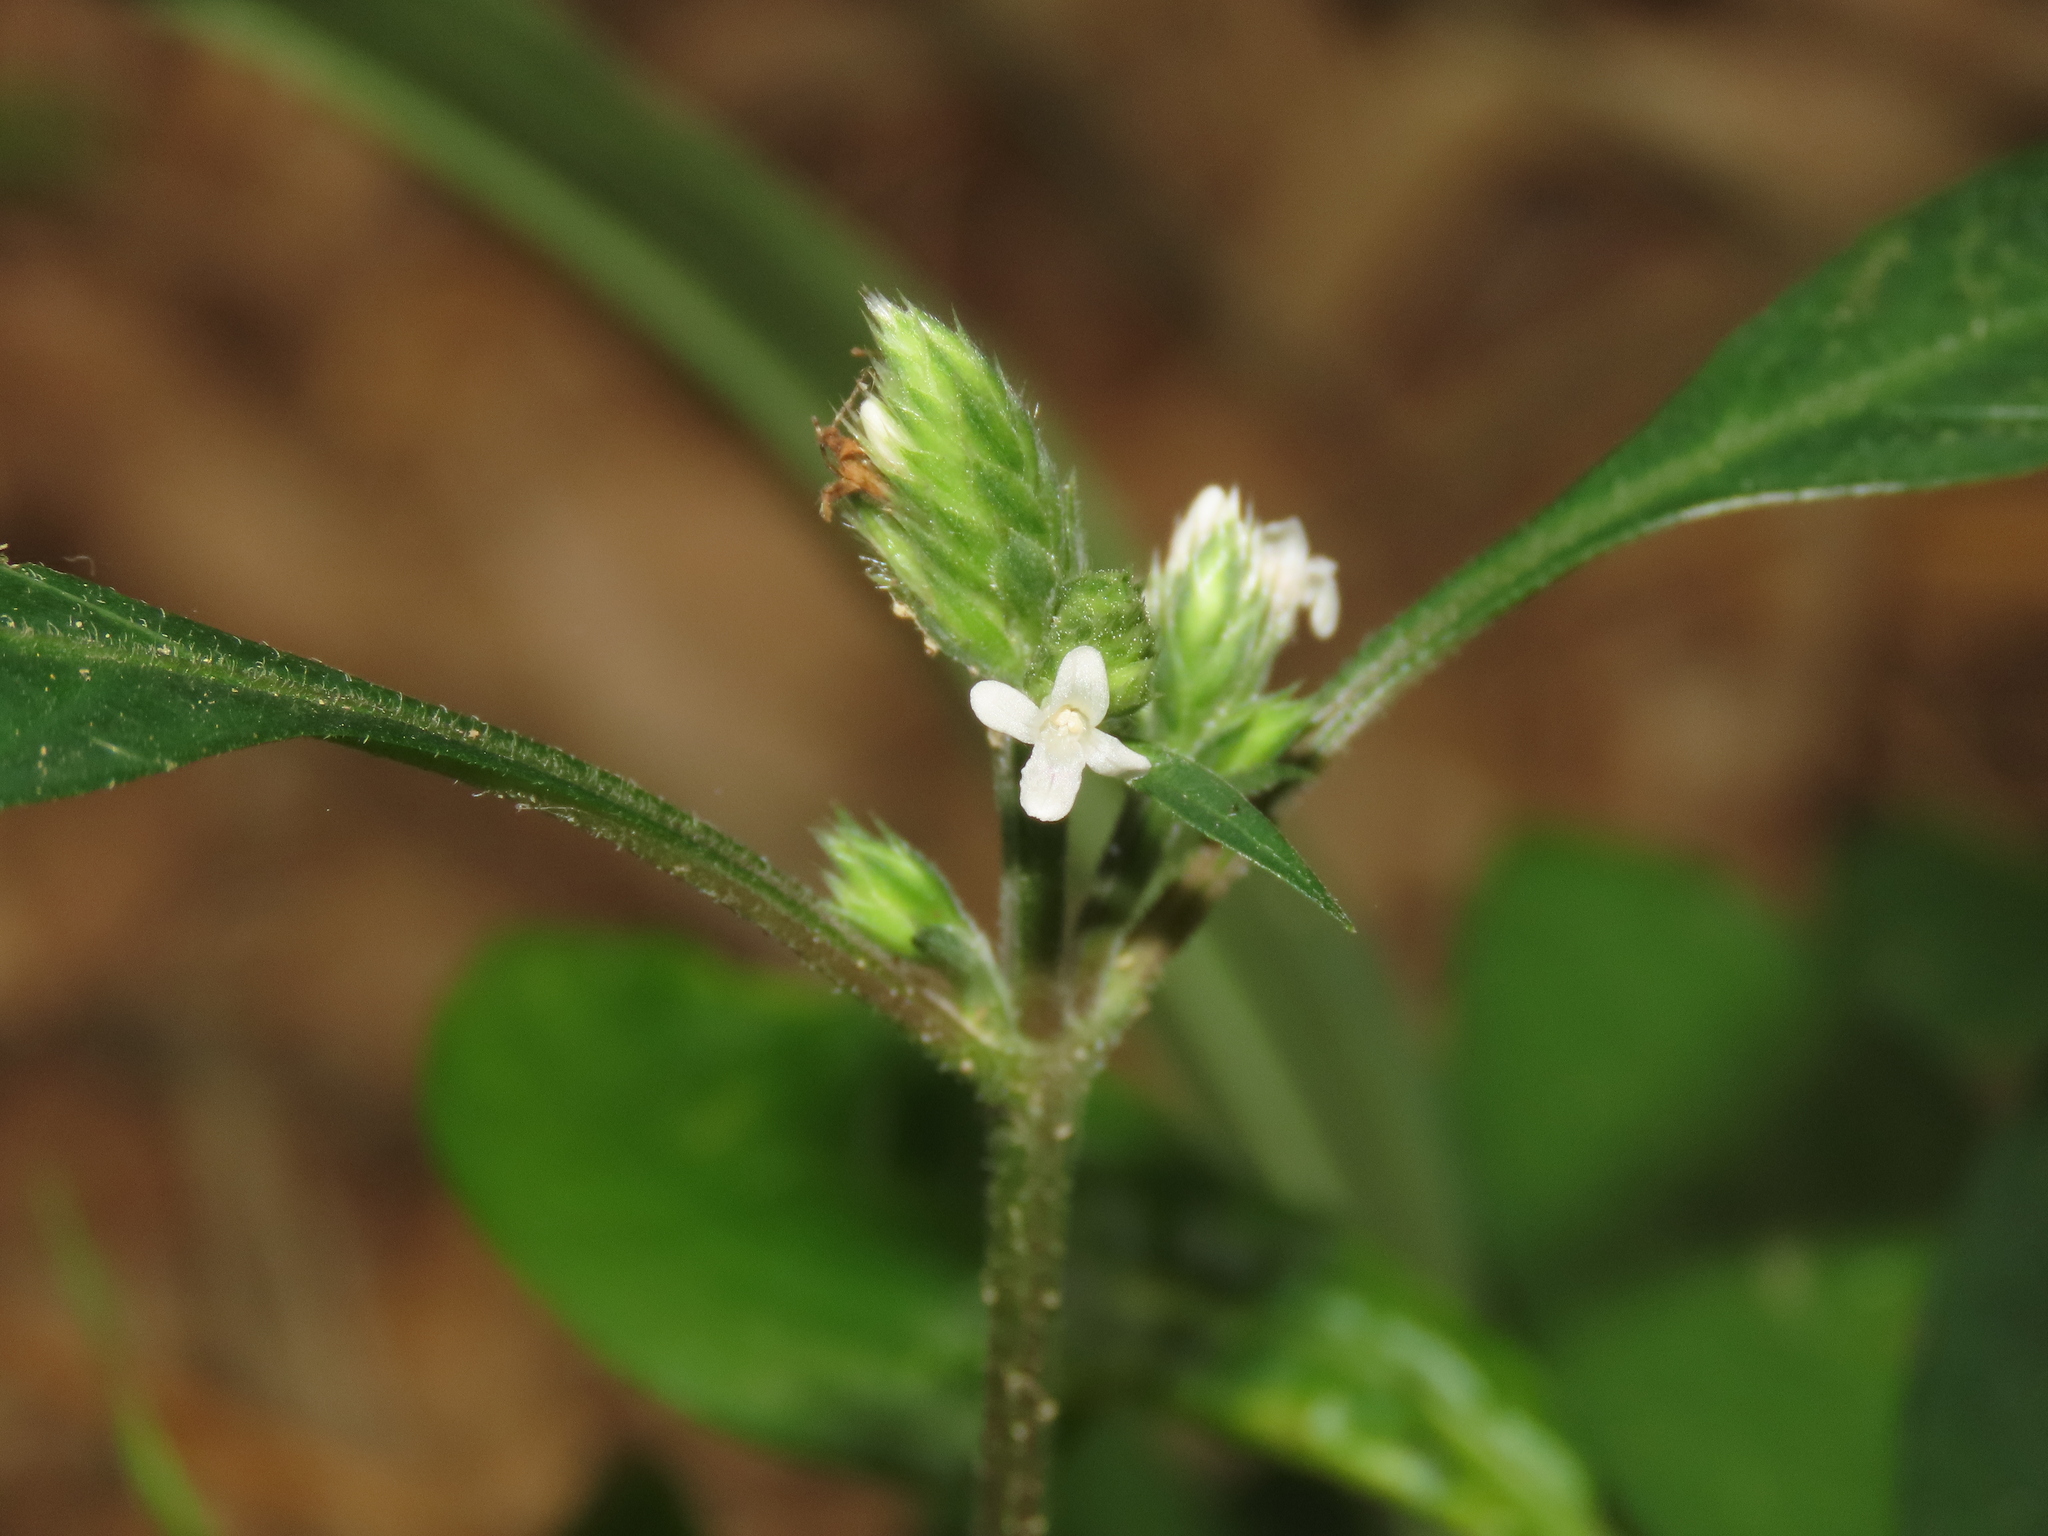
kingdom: Plantae
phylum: Tracheophyta
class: Magnoliopsida
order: Lamiales
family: Acanthaceae
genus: Lepidagathis
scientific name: Lepidagathis formosensis
